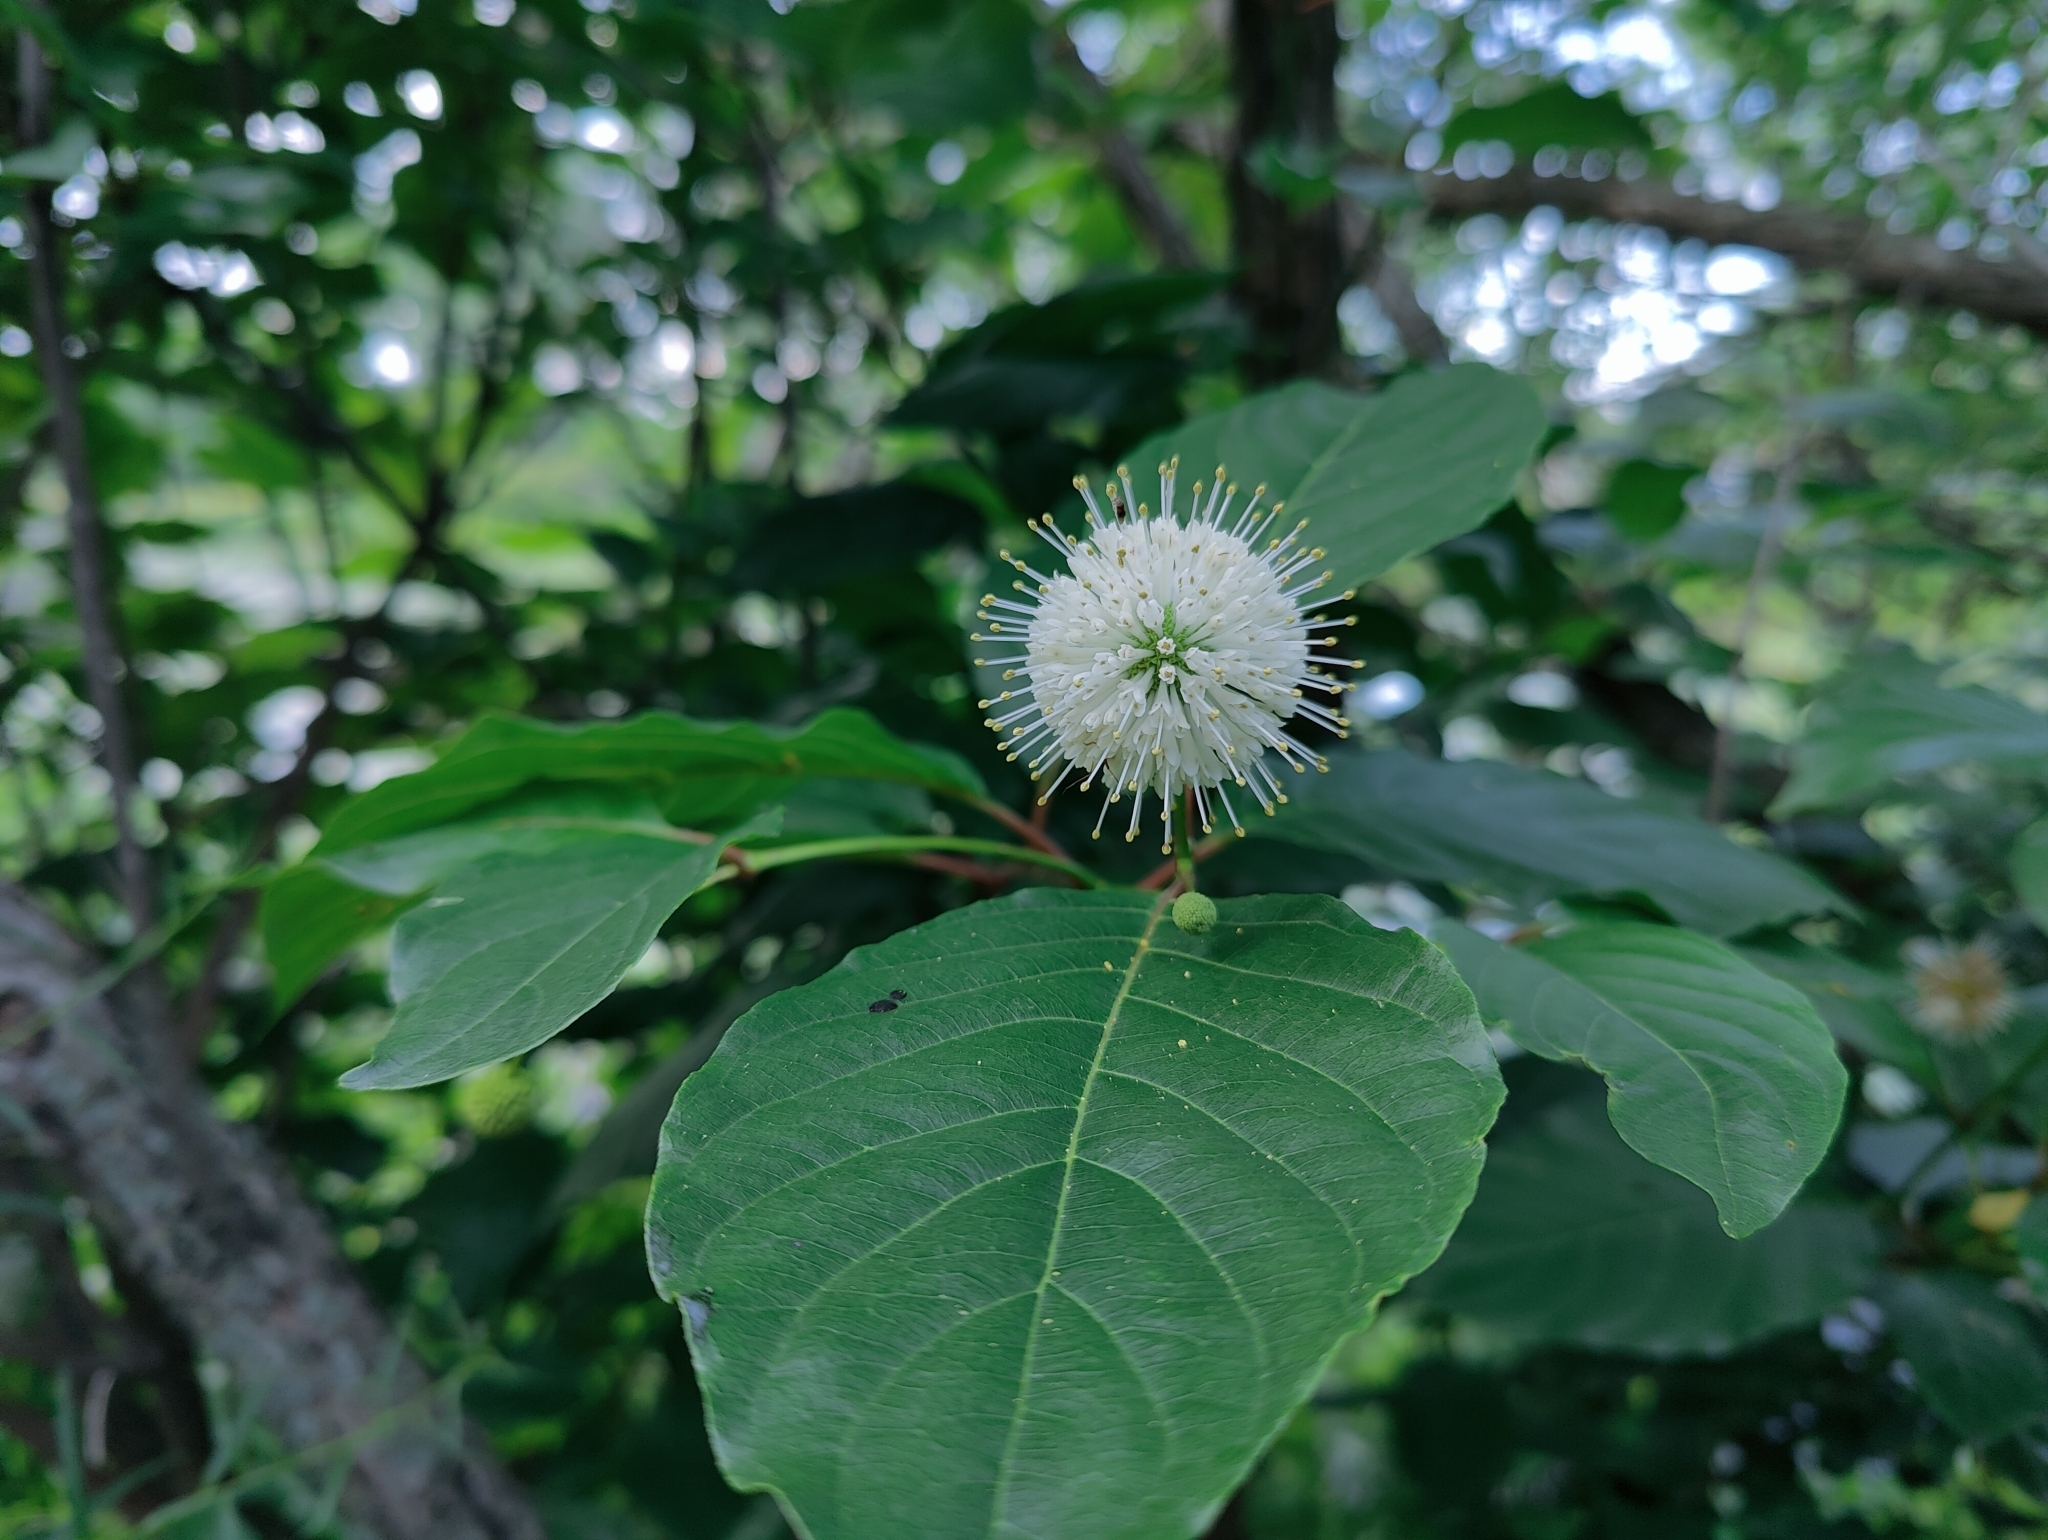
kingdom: Plantae
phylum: Tracheophyta
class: Magnoliopsida
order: Gentianales
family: Rubiaceae
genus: Cephalanthus
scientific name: Cephalanthus occidentalis
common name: Button-willow
